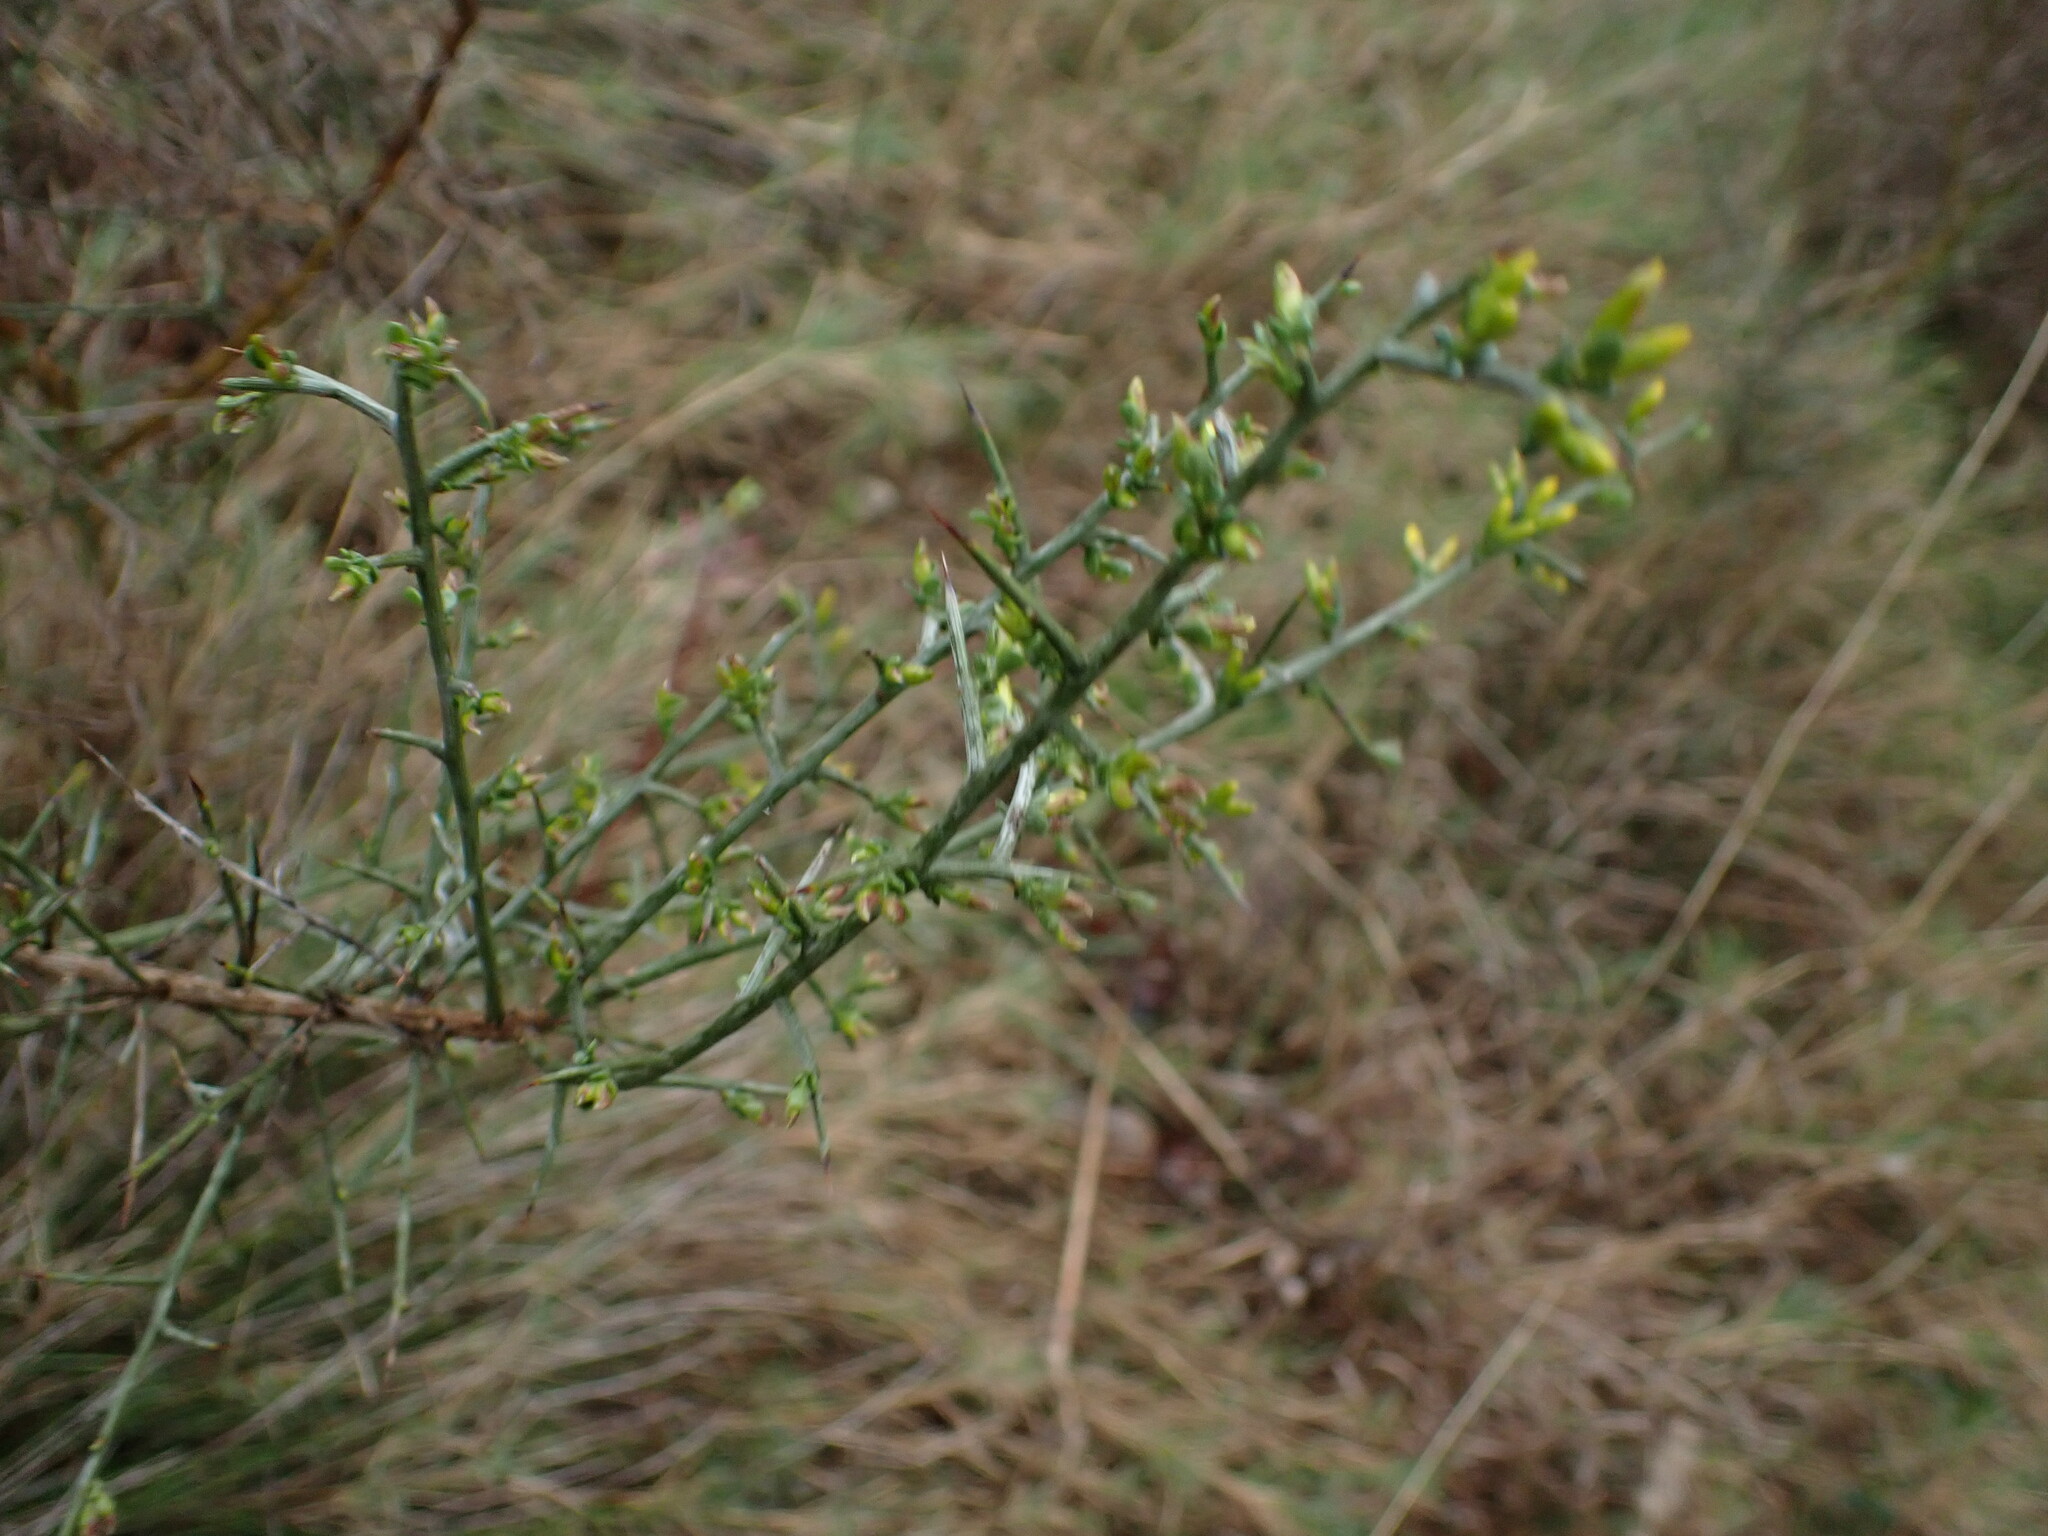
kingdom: Plantae
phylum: Tracheophyta
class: Magnoliopsida
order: Fabales
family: Fabaceae
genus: Genista
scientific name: Genista scorpius
